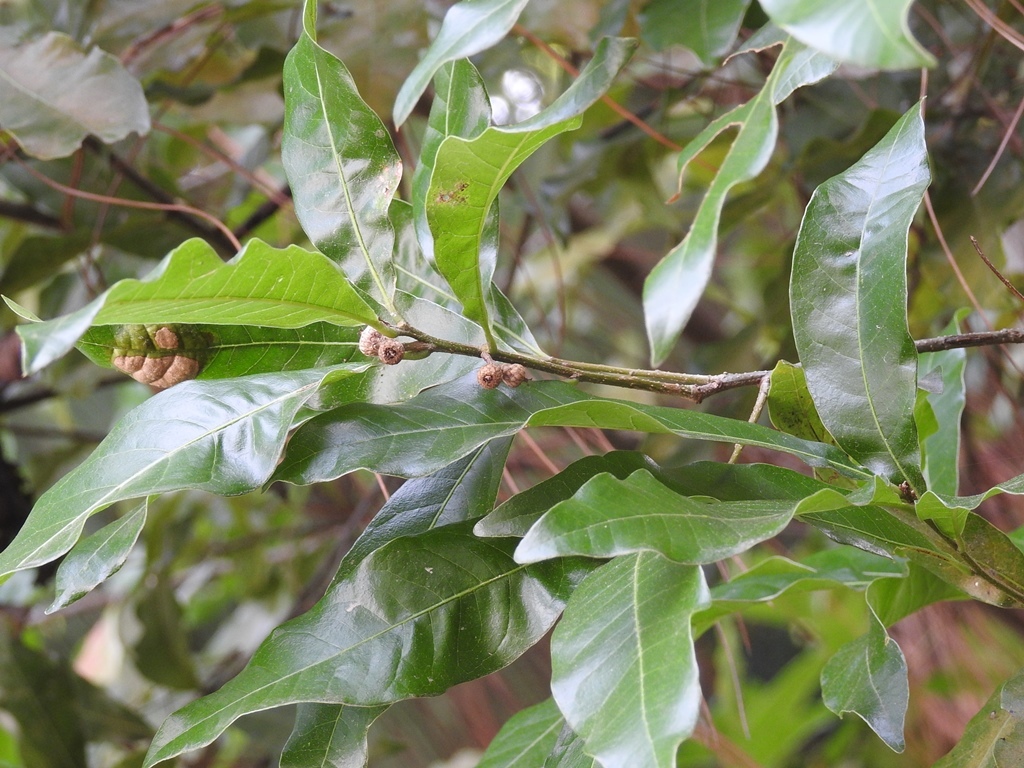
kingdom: Plantae
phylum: Tracheophyta
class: Magnoliopsida
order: Fagales
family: Fagaceae
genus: Quercus
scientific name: Quercus sapotifolia
